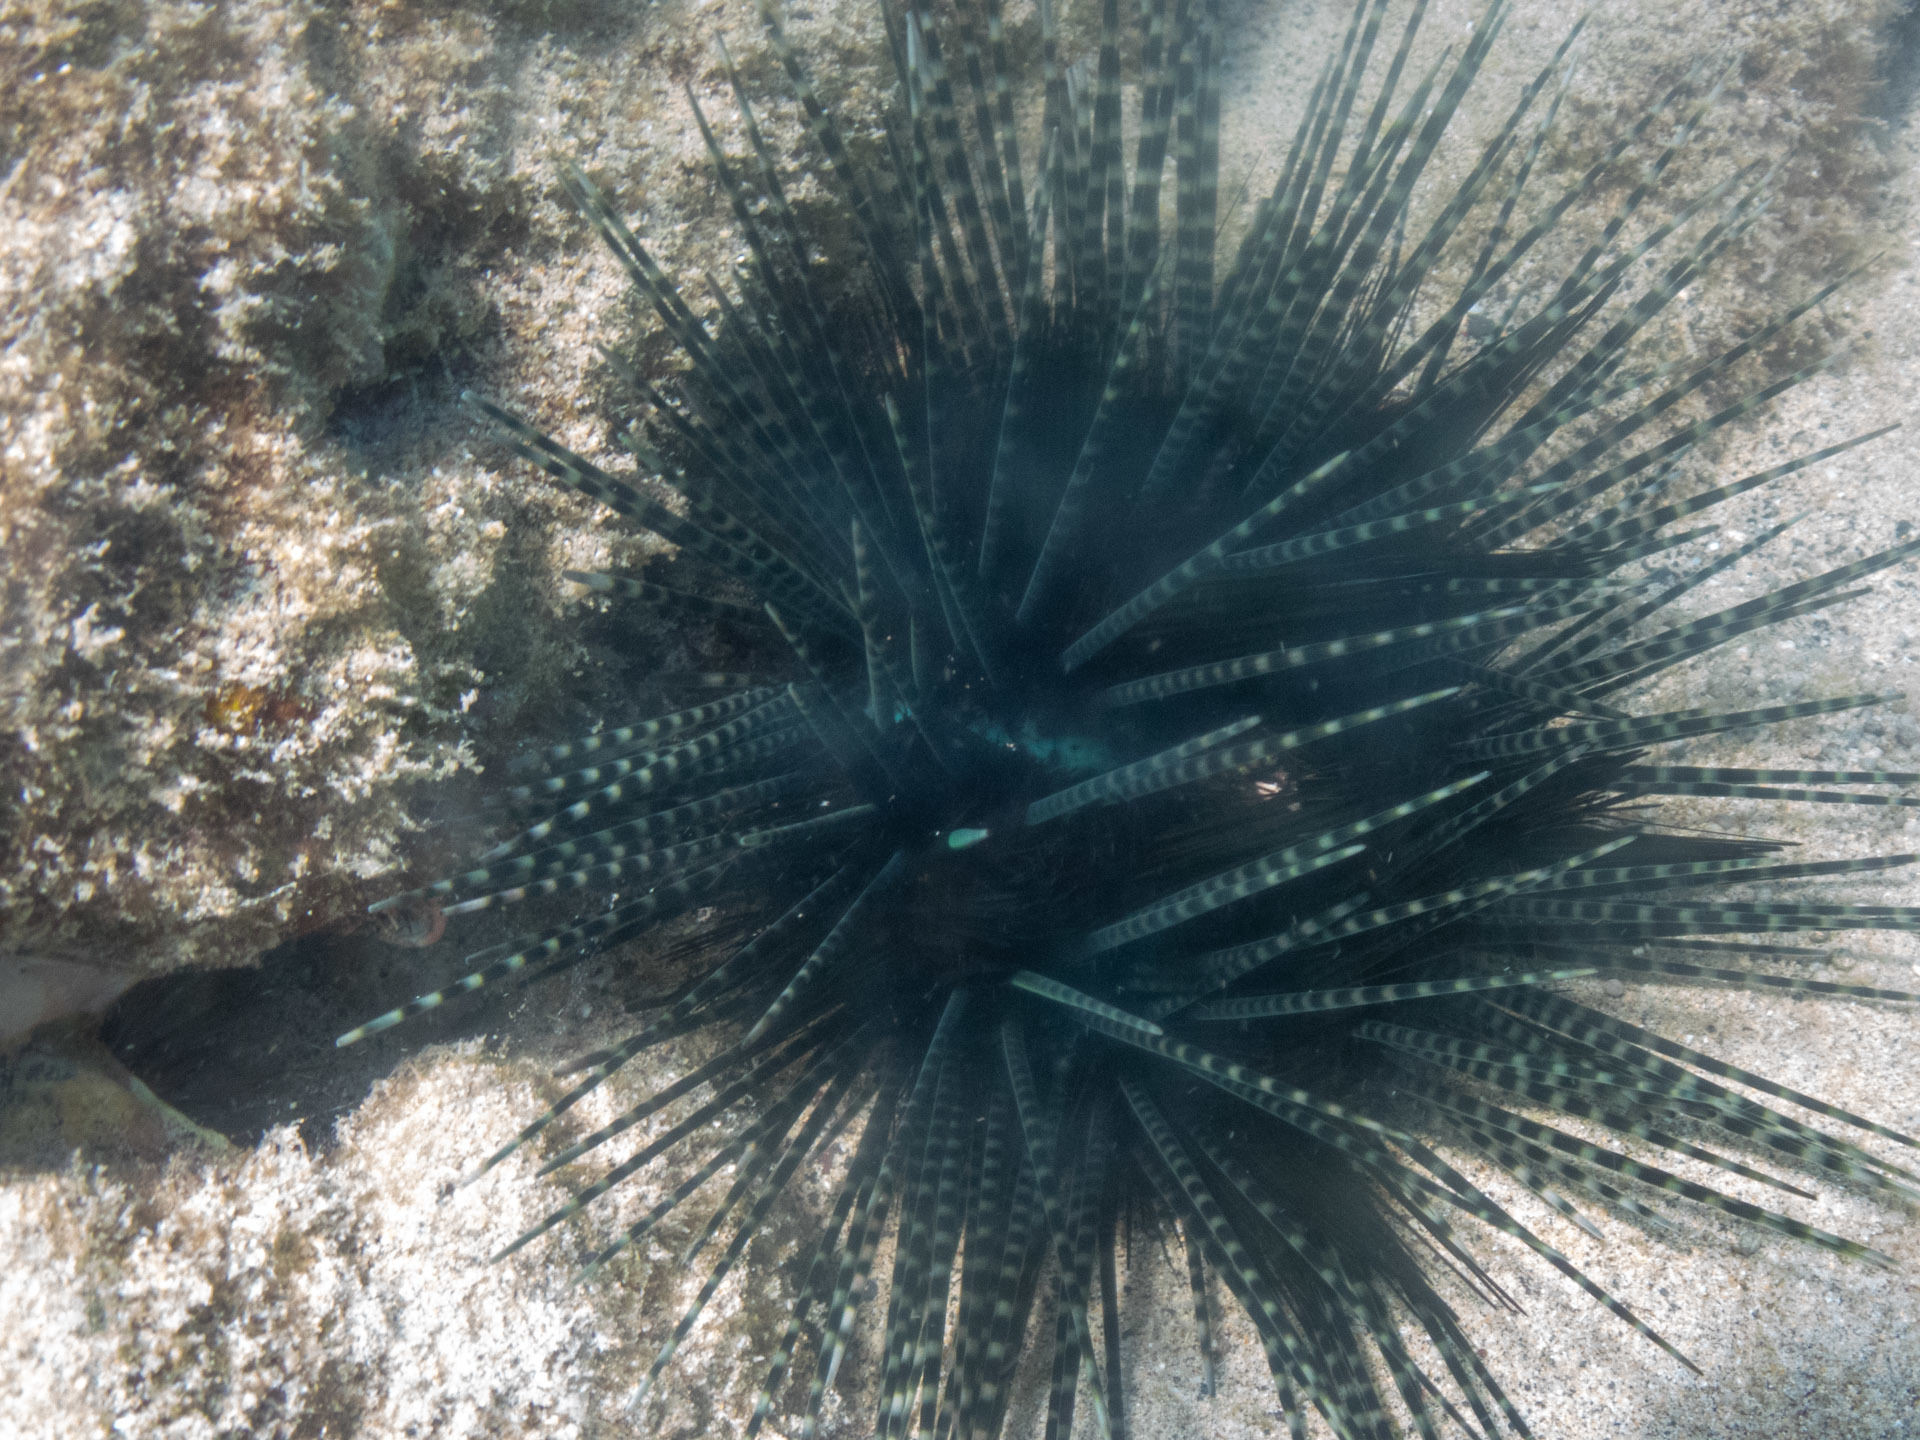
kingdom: Animalia
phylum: Echinodermata
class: Echinoidea
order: Diadematoida
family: Diadematidae
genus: Echinothrix
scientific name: Echinothrix calamaris
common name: Banded sea urchin
